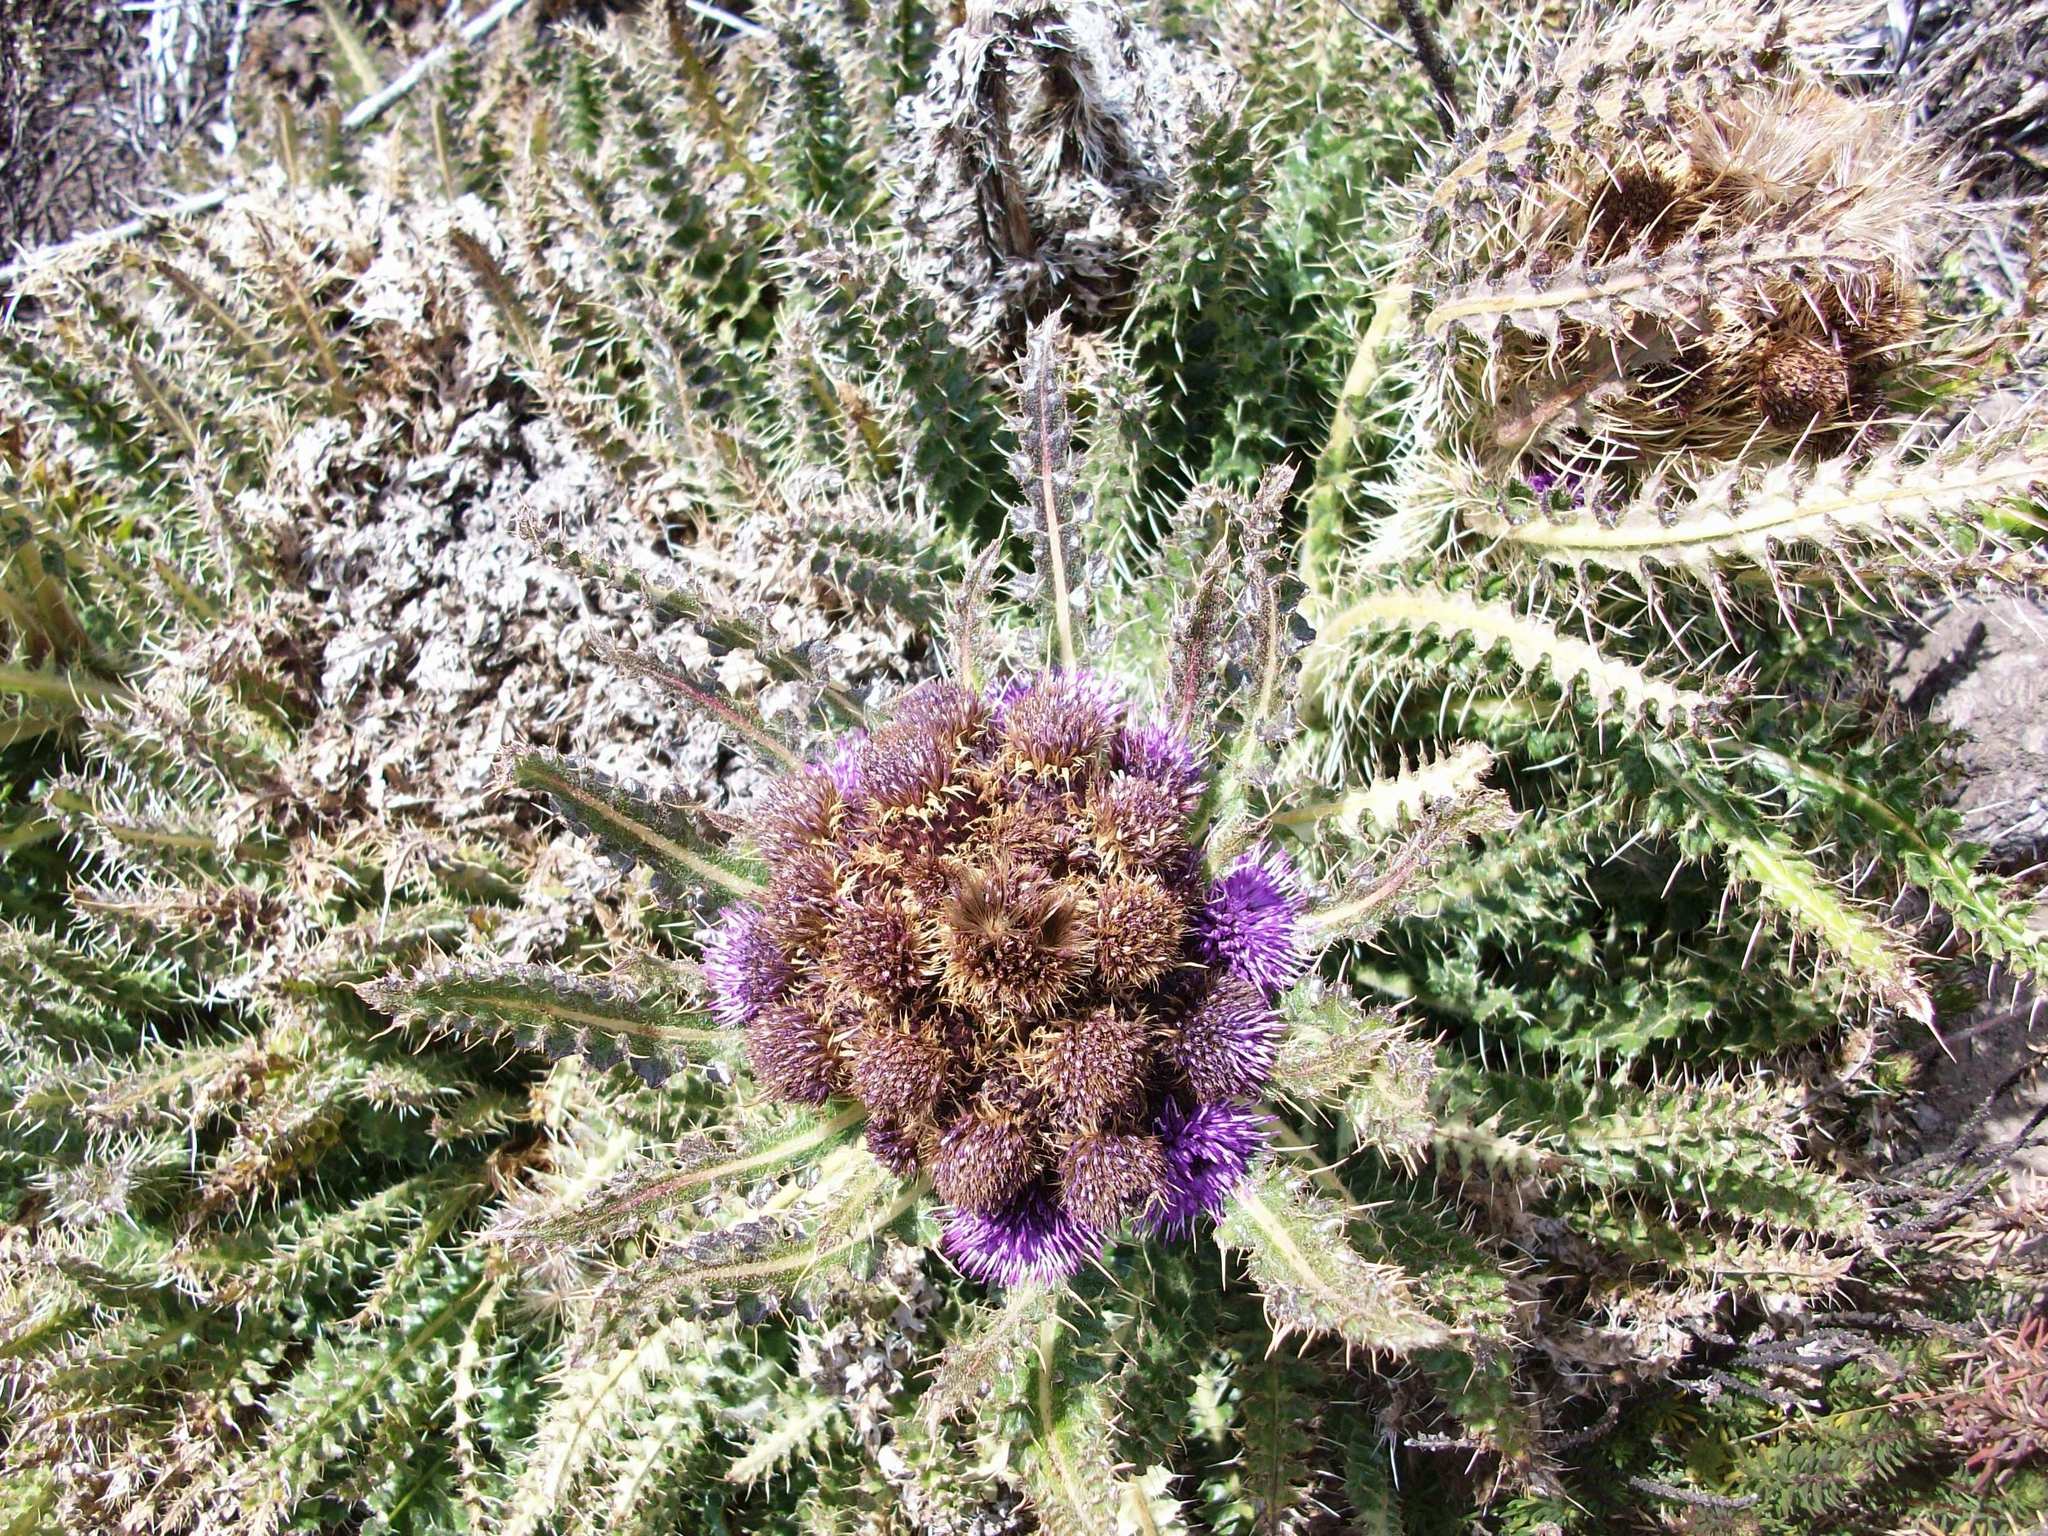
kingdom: Plantae
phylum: Tracheophyta
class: Magnoliopsida
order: Asterales
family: Asteraceae
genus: Carduus
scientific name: Carduus keniensis
